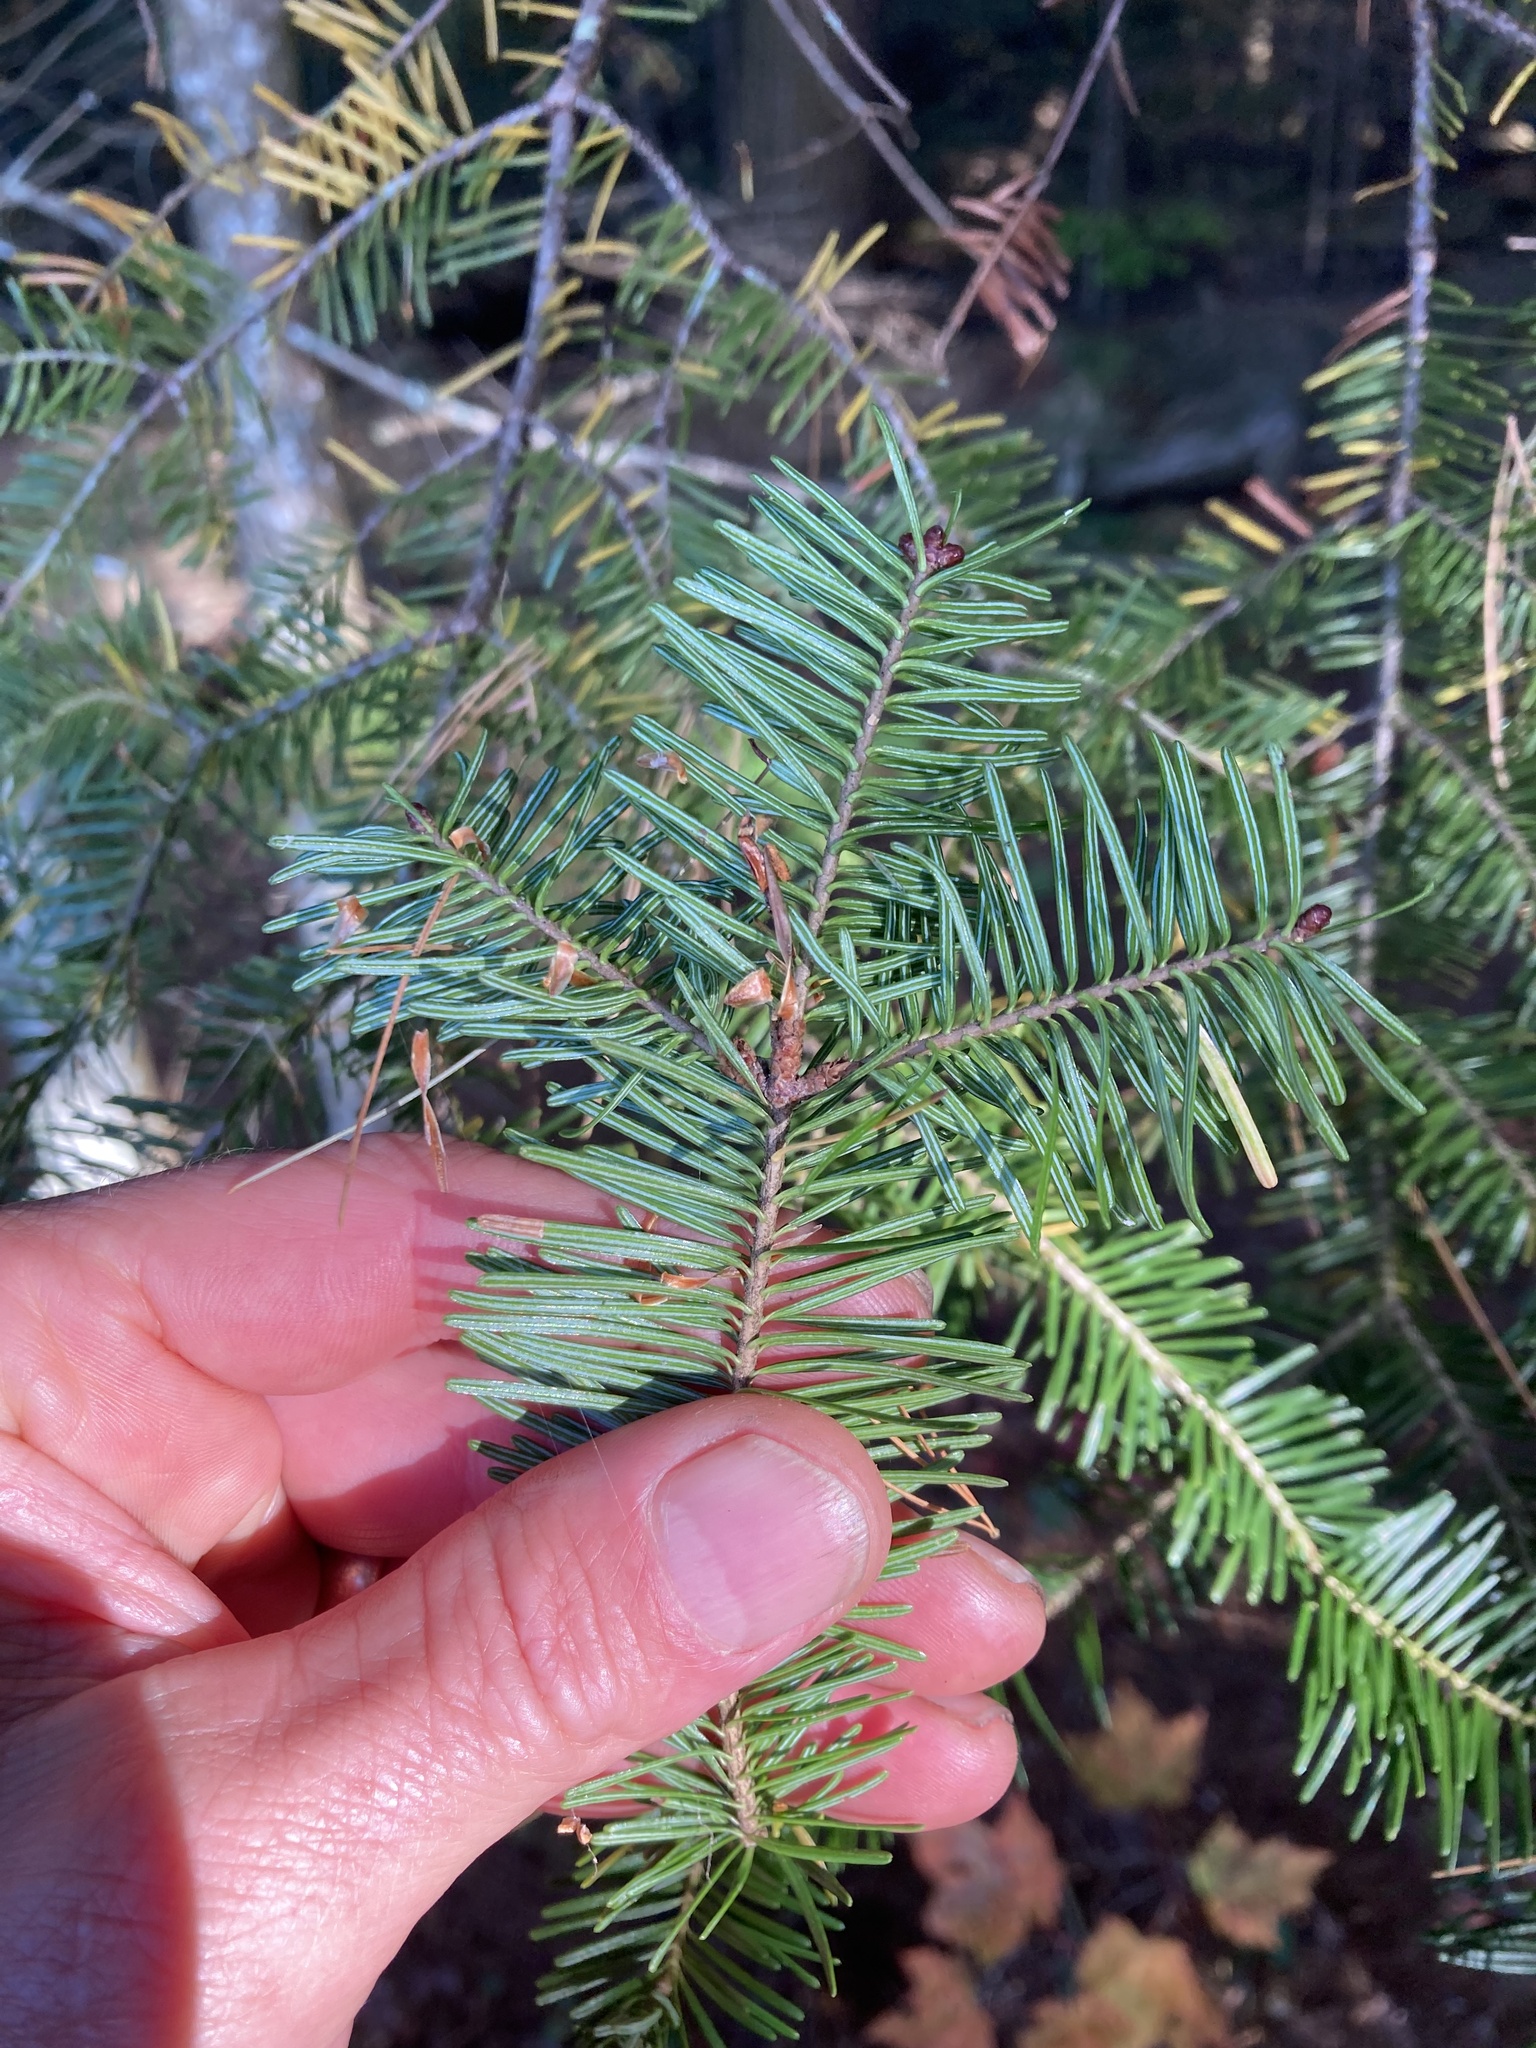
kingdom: Plantae
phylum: Tracheophyta
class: Pinopsida
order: Pinales
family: Pinaceae
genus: Abies
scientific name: Abies balsamea
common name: Balsam fir
